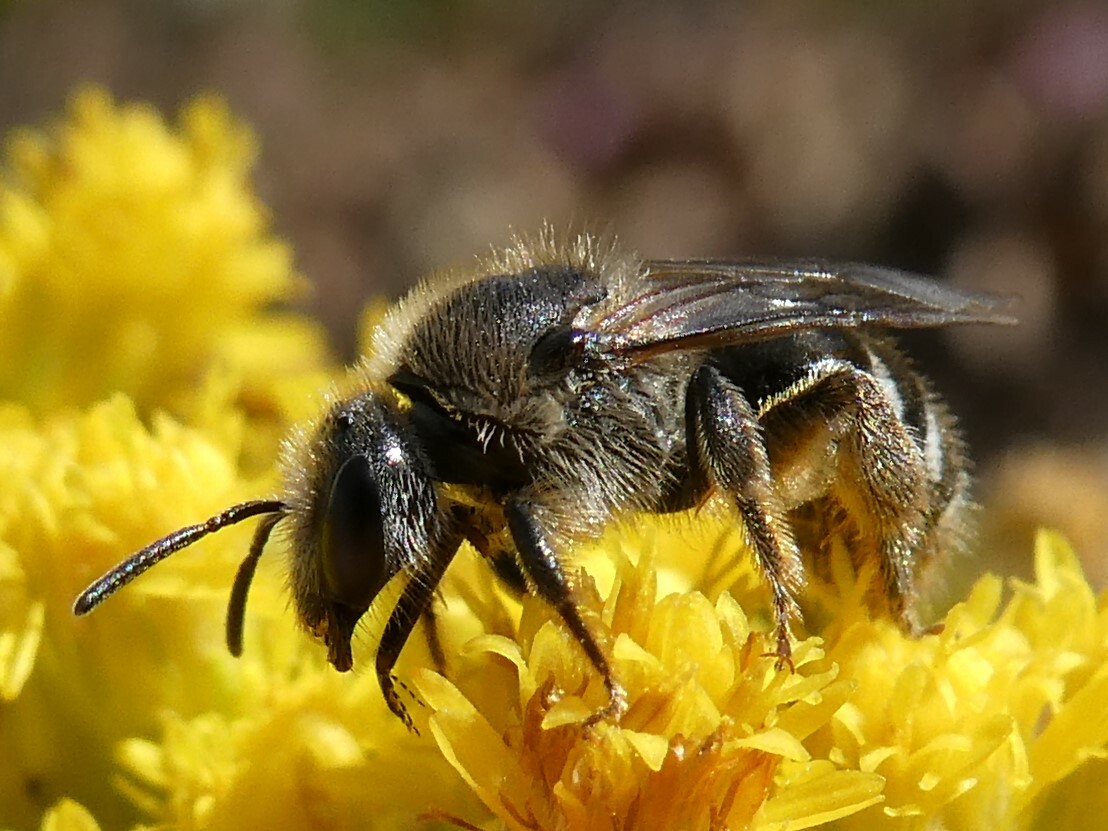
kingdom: Animalia
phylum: Arthropoda
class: Insecta
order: Hymenoptera
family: Halictidae
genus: Lasioglossum
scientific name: Lasioglossum leucozonium
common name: White-zoned furrow bee
